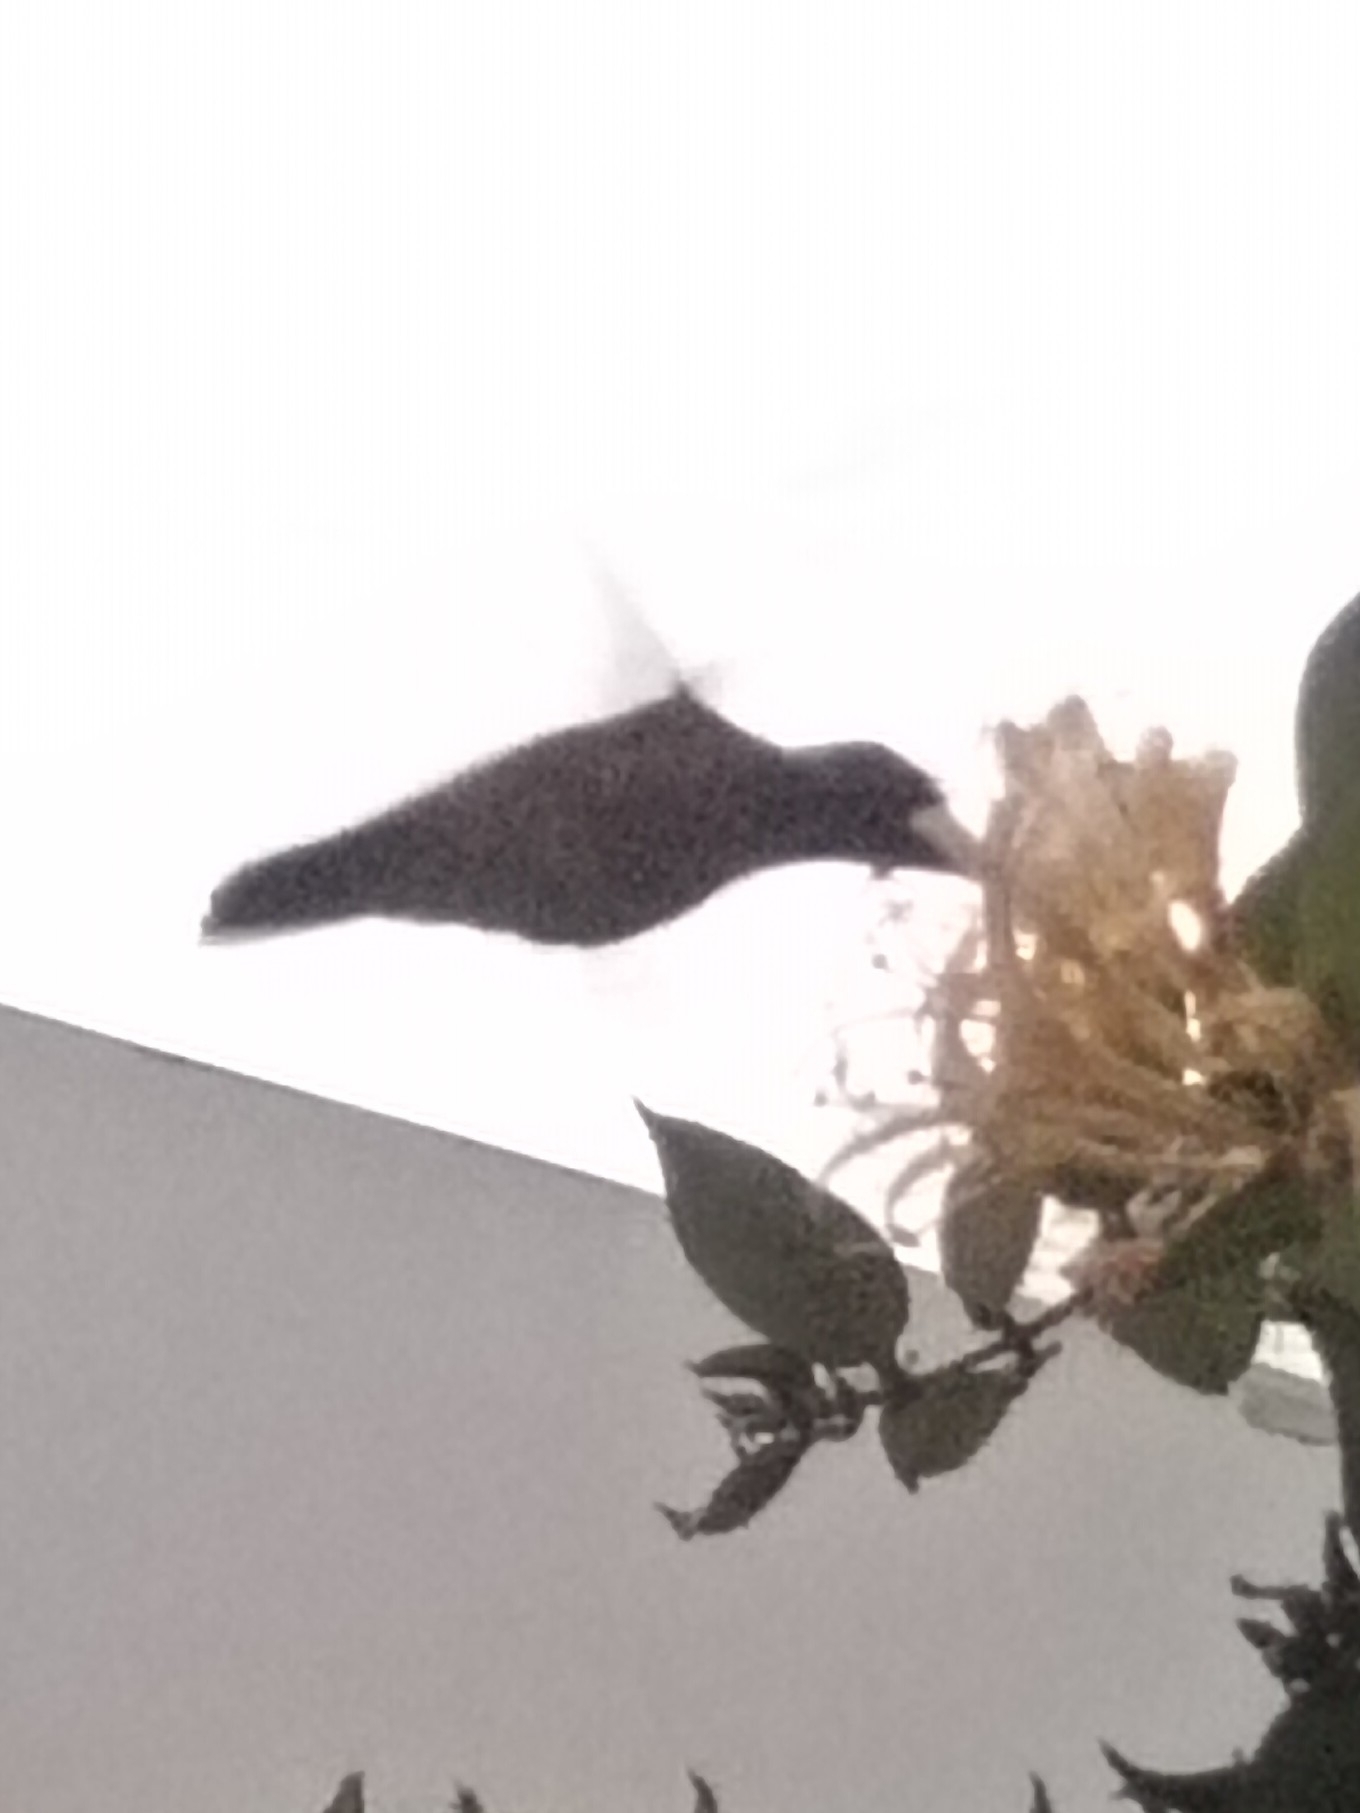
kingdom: Animalia
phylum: Chordata
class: Aves
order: Apodiformes
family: Trochilidae
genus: Amazilis
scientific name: Amazilis amazilia
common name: Amazilia hummingbird
